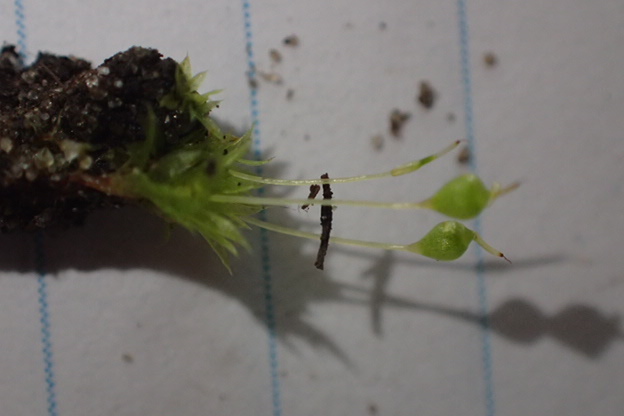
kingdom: Plantae
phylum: Bryophyta
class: Bryopsida
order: Funariales
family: Funariaceae
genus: Physcomitrium
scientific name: Physcomitrium pyriforme
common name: Common bladder-moss
